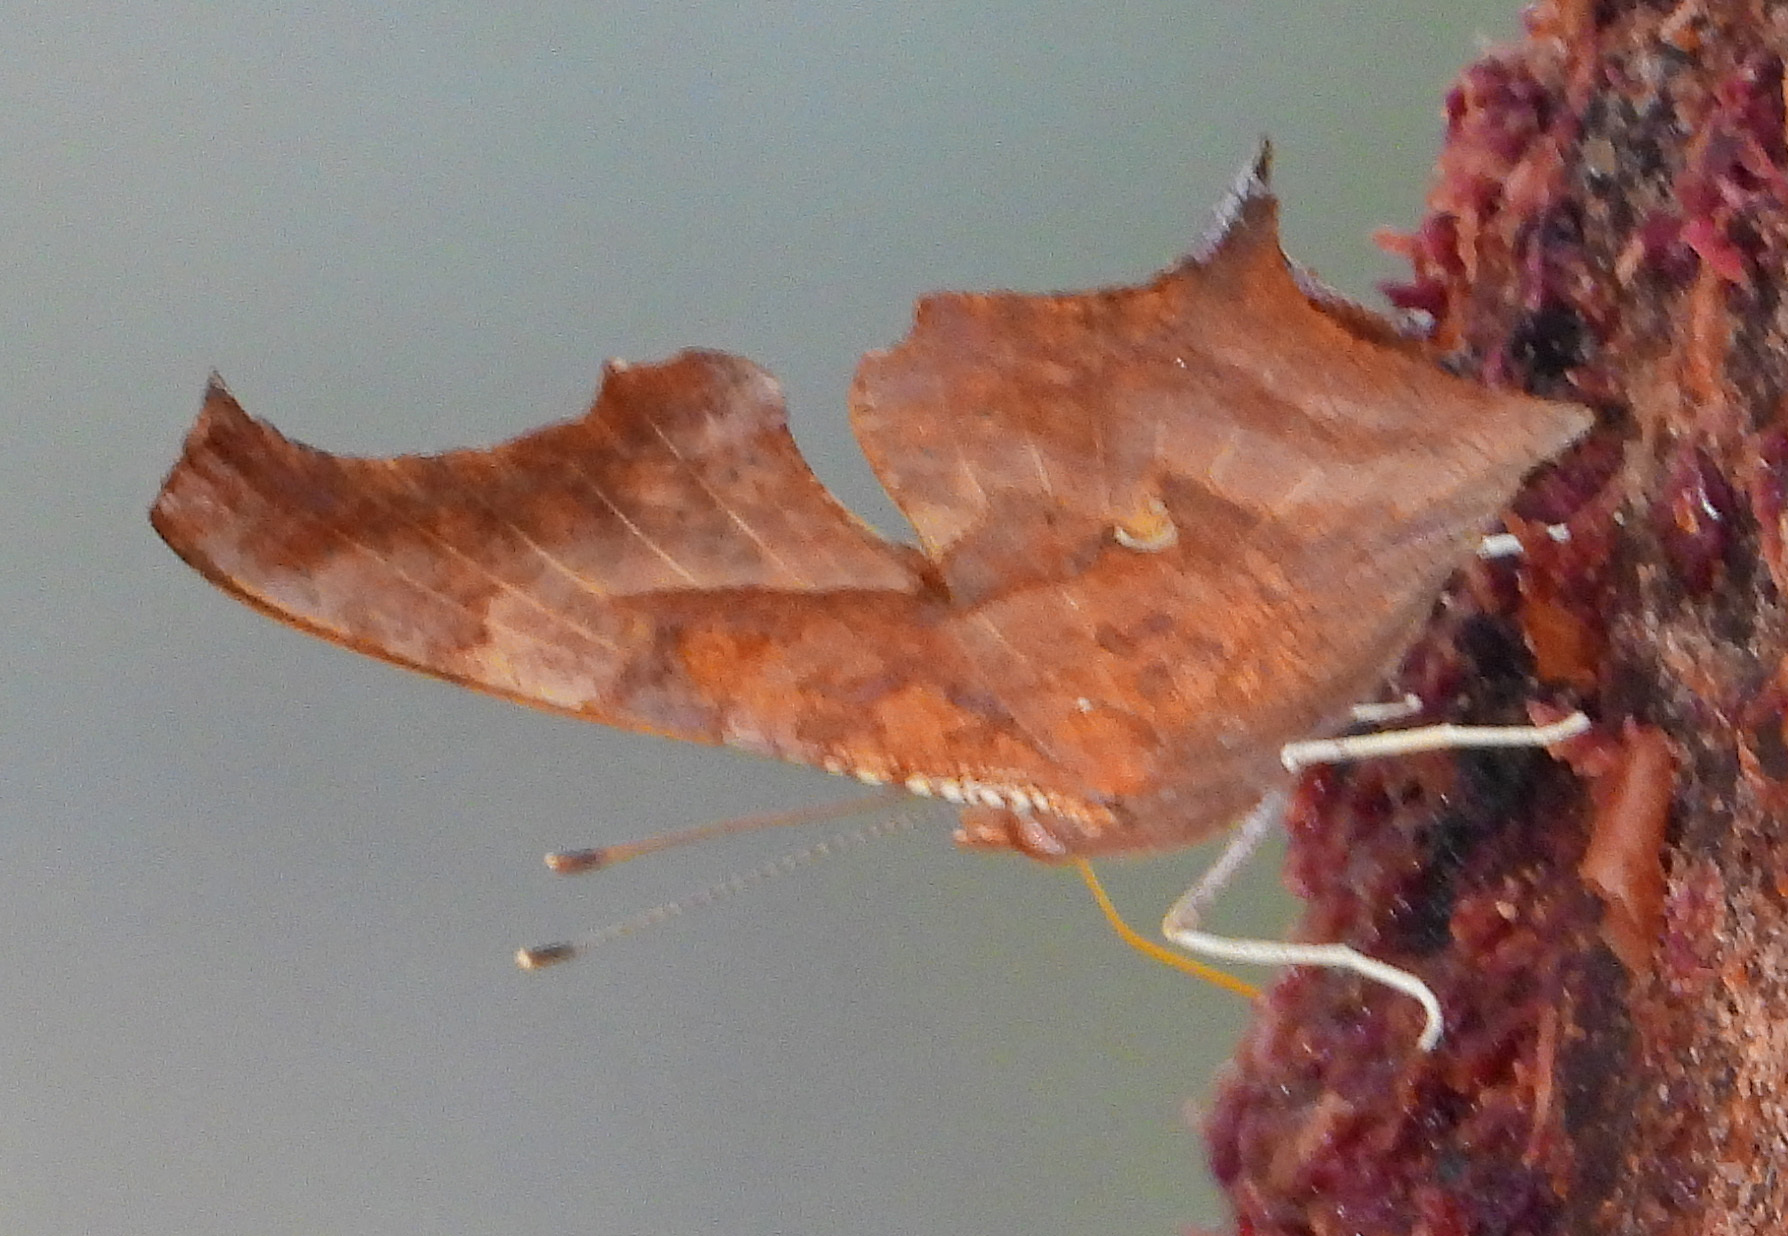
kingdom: Animalia
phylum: Arthropoda
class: Insecta
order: Lepidoptera
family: Nymphalidae
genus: Polygonia
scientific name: Polygonia interrogationis
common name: Question mark
